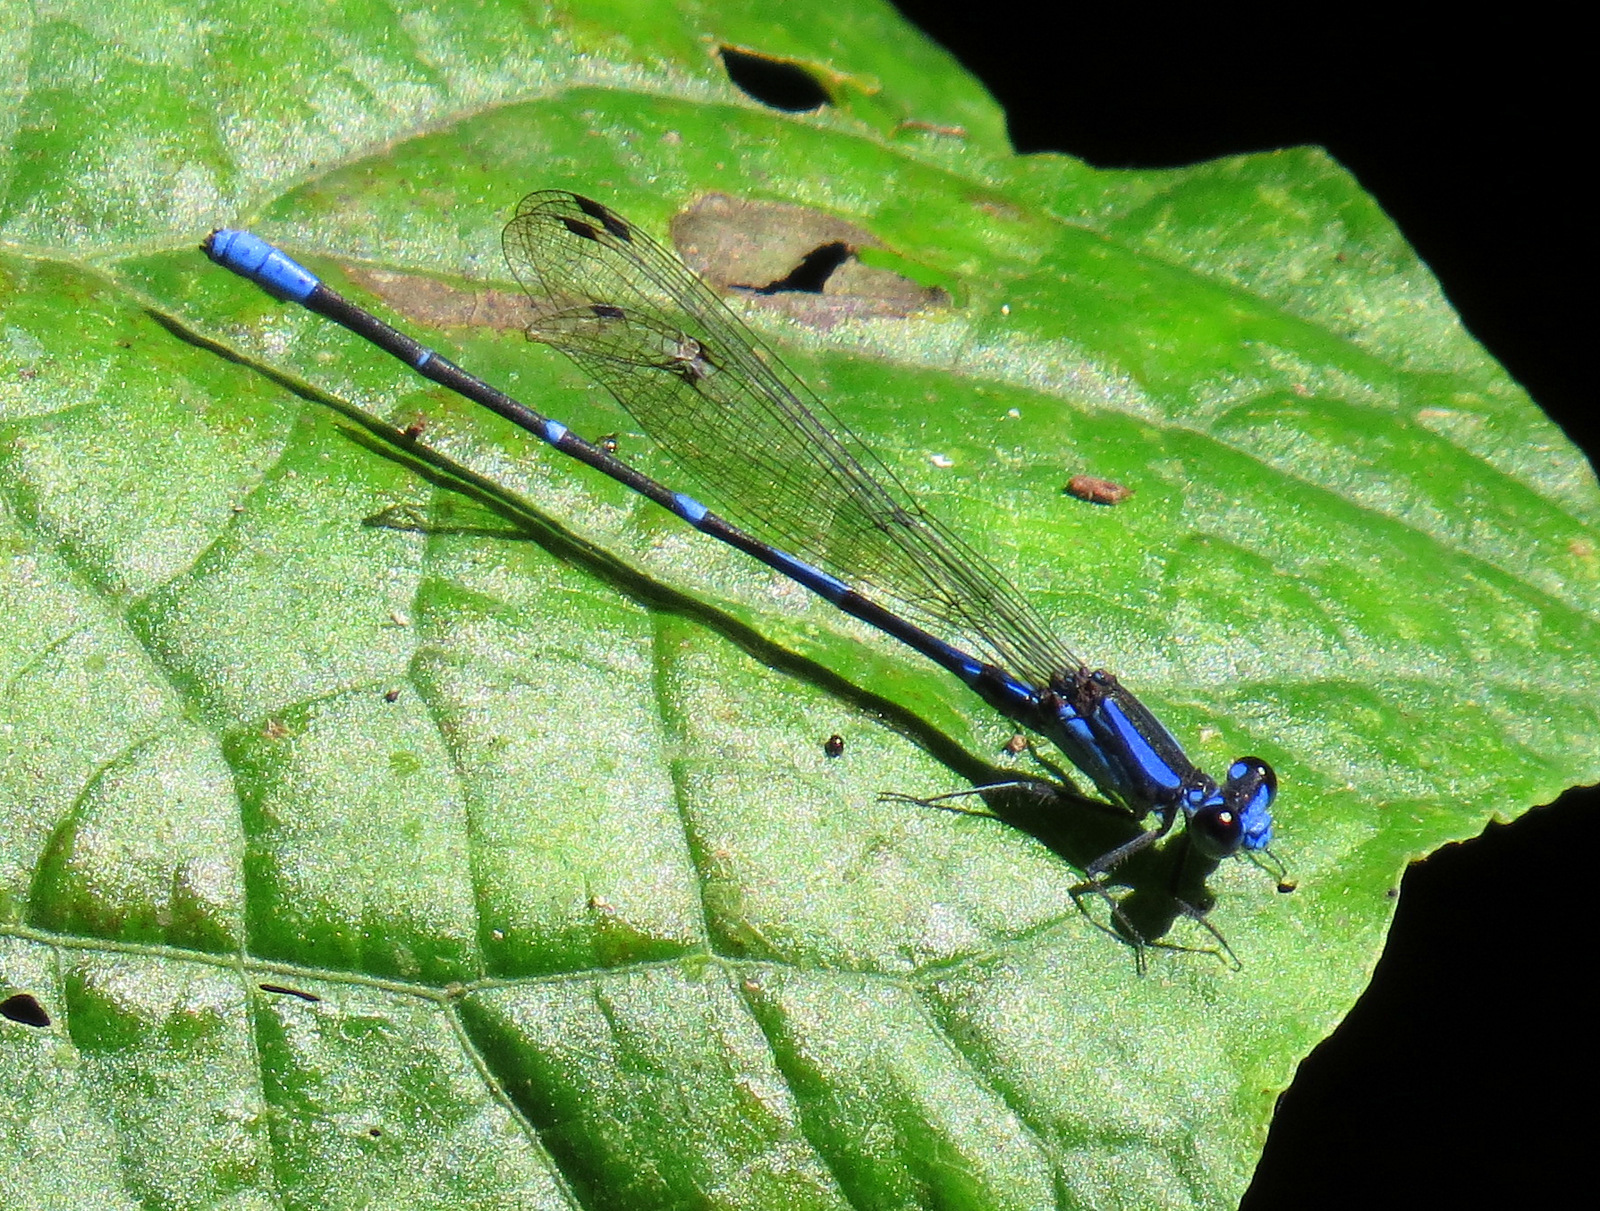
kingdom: Animalia
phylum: Arthropoda
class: Insecta
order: Odonata
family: Coenagrionidae
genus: Argia
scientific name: Argia oculata
